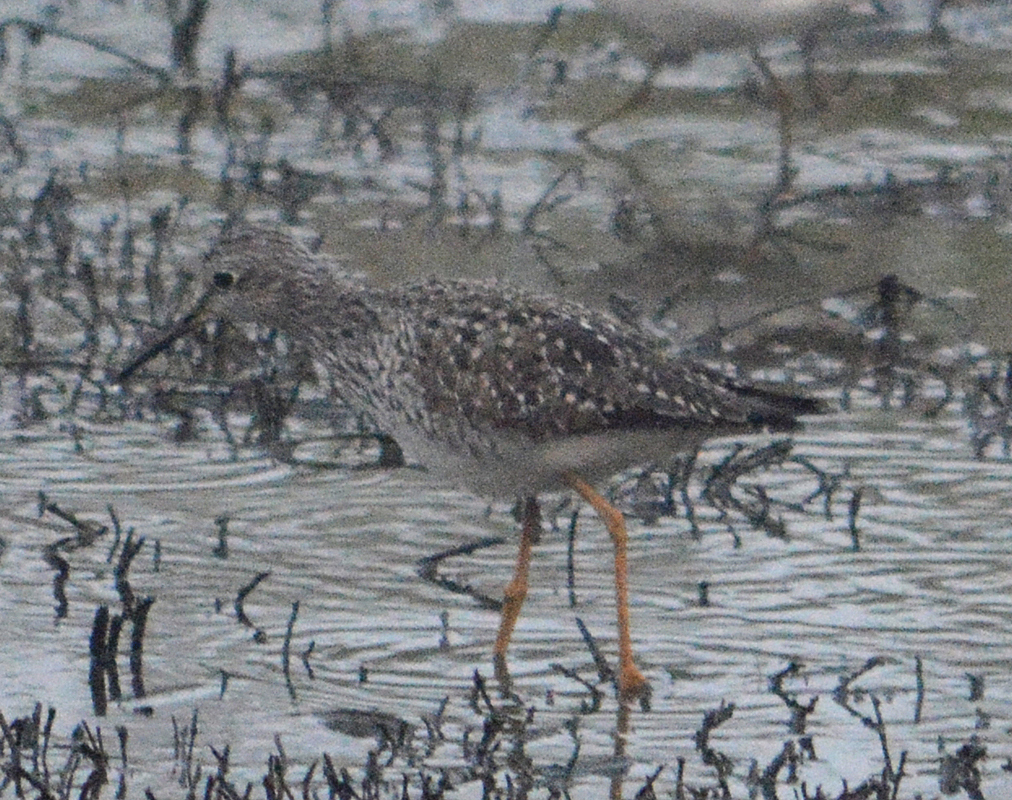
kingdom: Animalia
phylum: Chordata
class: Aves
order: Charadriiformes
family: Scolopacidae
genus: Tringa
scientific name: Tringa flavipes
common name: Lesser yellowlegs
